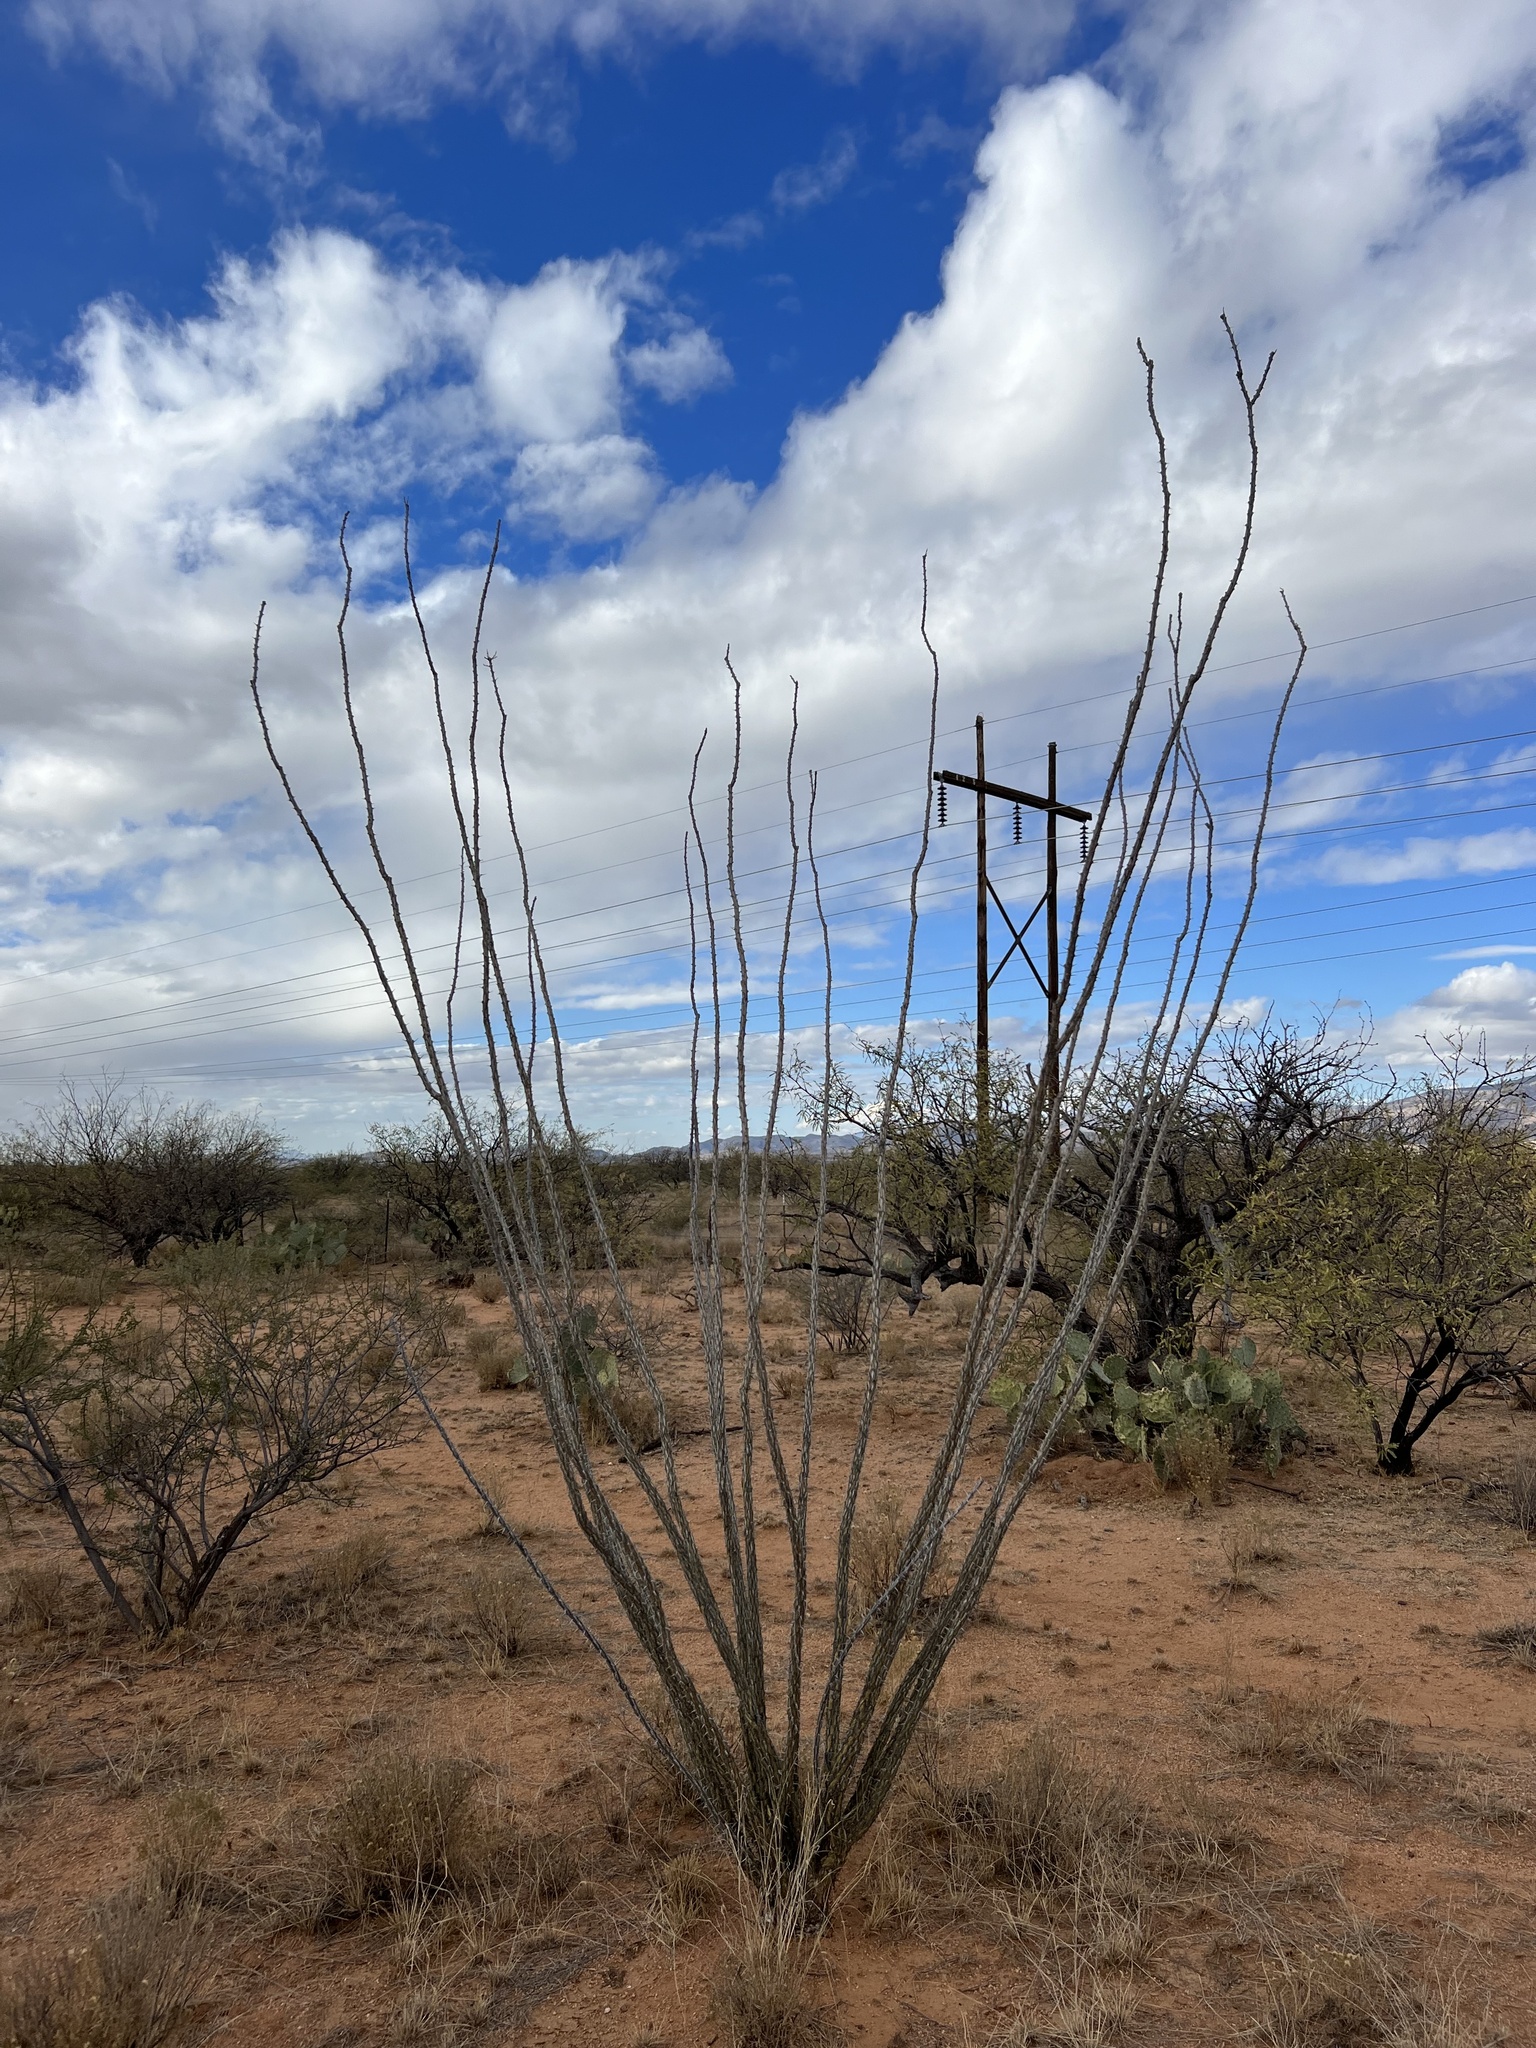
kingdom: Plantae
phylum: Tracheophyta
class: Magnoliopsida
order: Ericales
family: Fouquieriaceae
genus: Fouquieria
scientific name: Fouquieria splendens
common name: Vine-cactus
